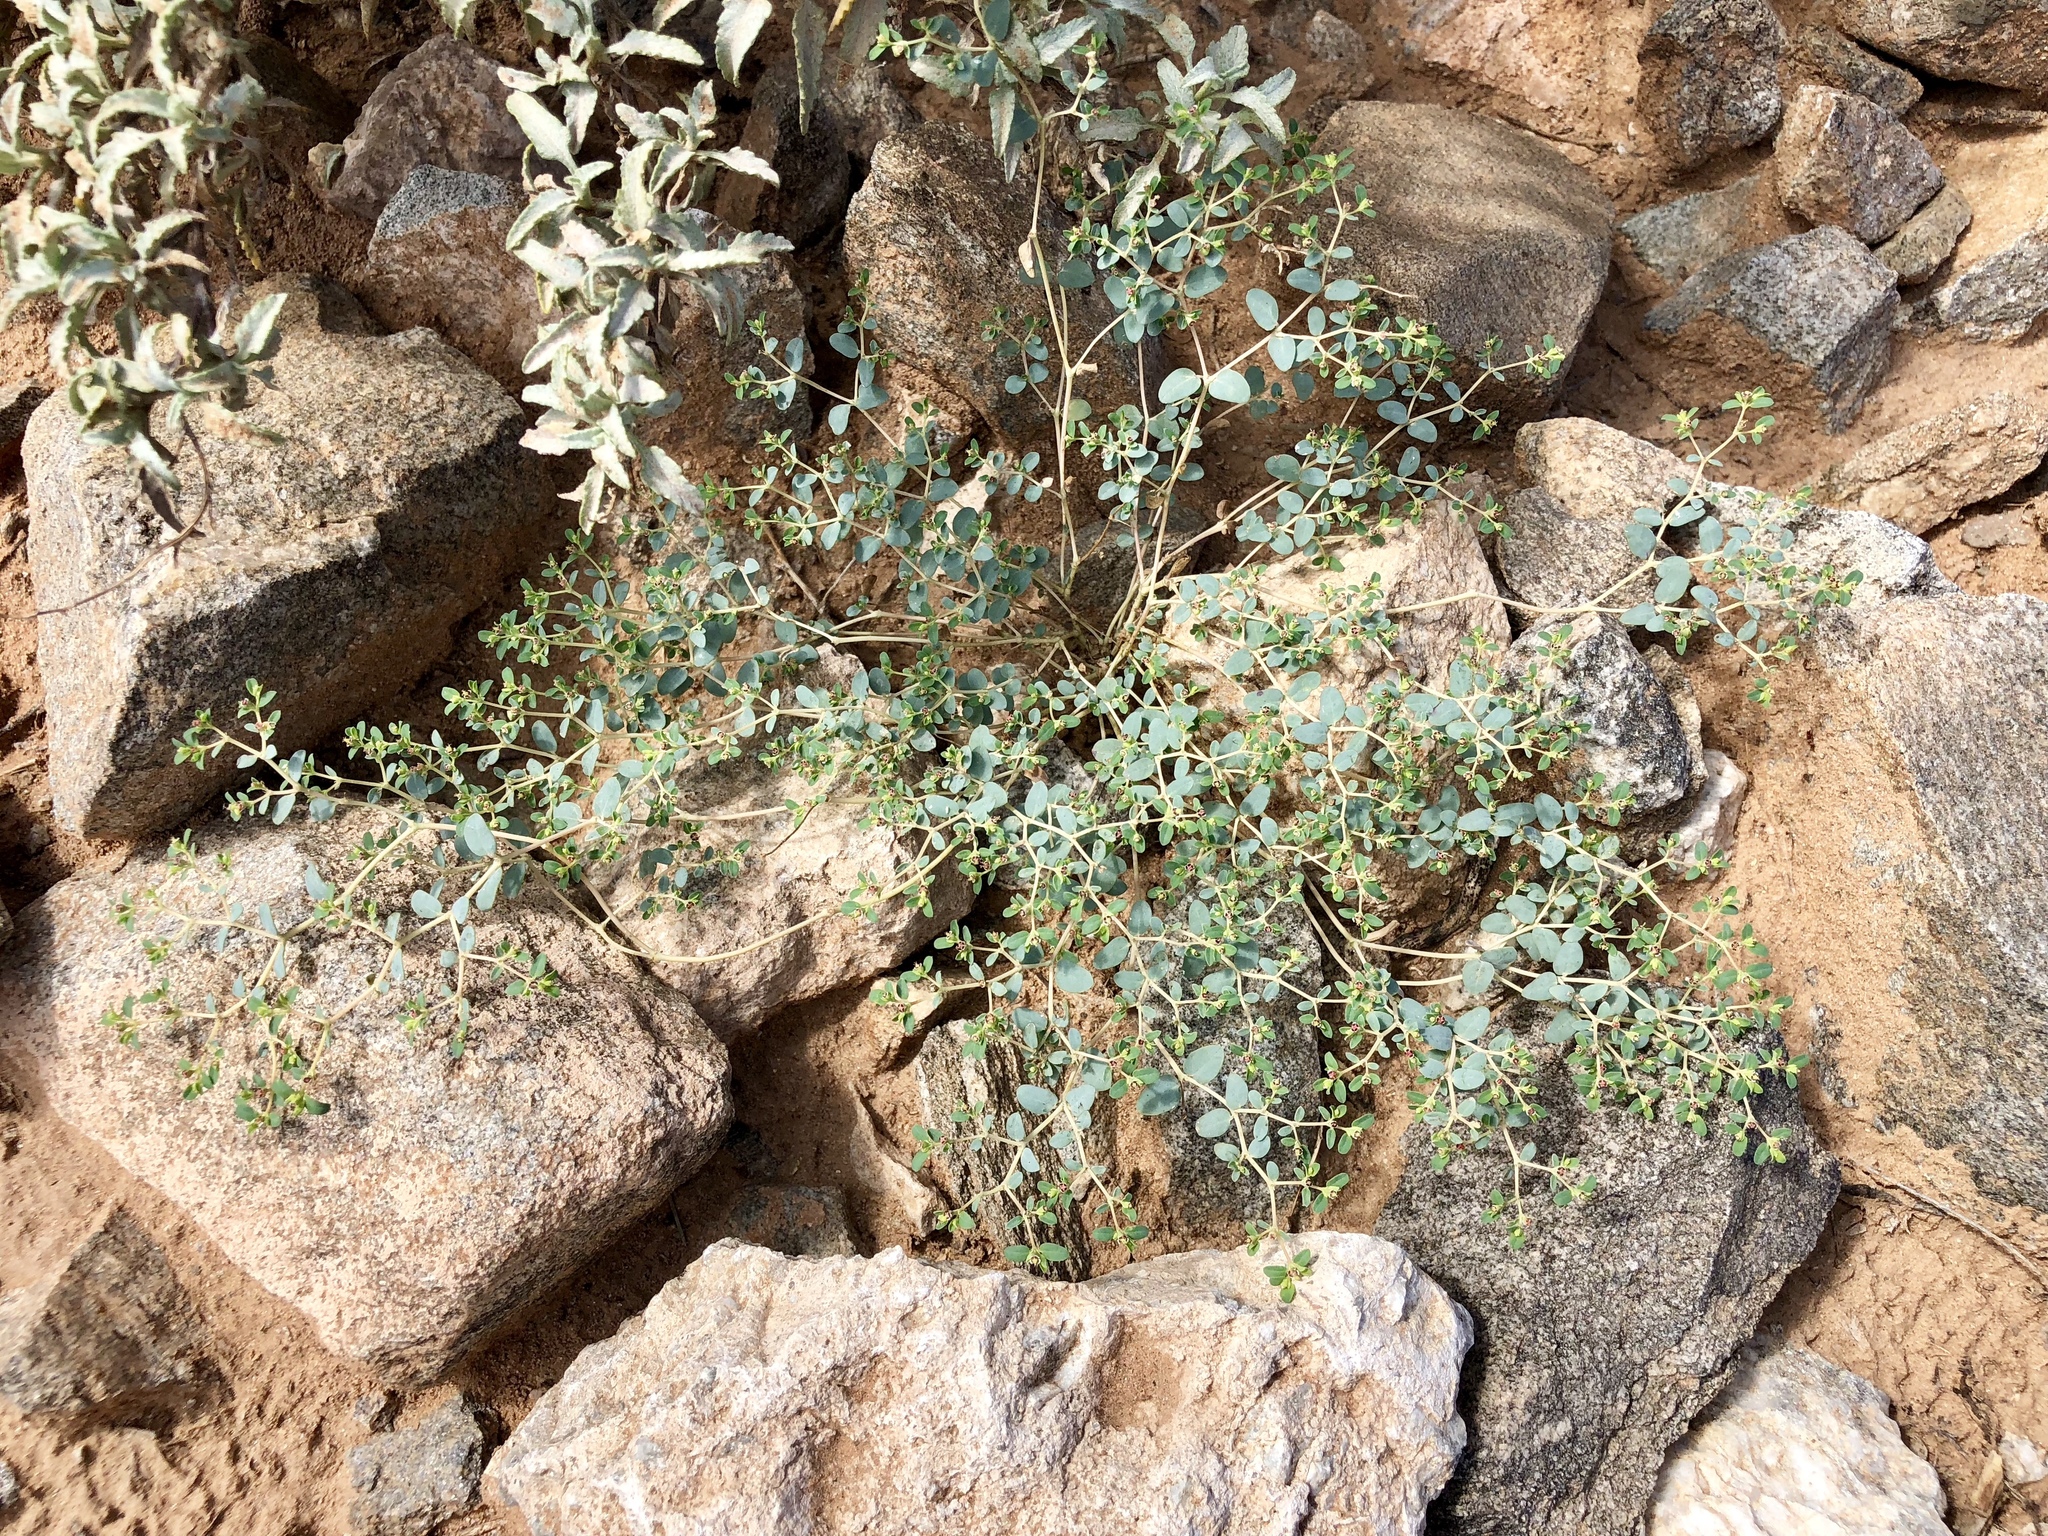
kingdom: Plantae
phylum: Tracheophyta
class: Magnoliopsida
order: Malpighiales
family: Euphorbiaceae
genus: Euphorbia
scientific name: Euphorbia polycarpa
